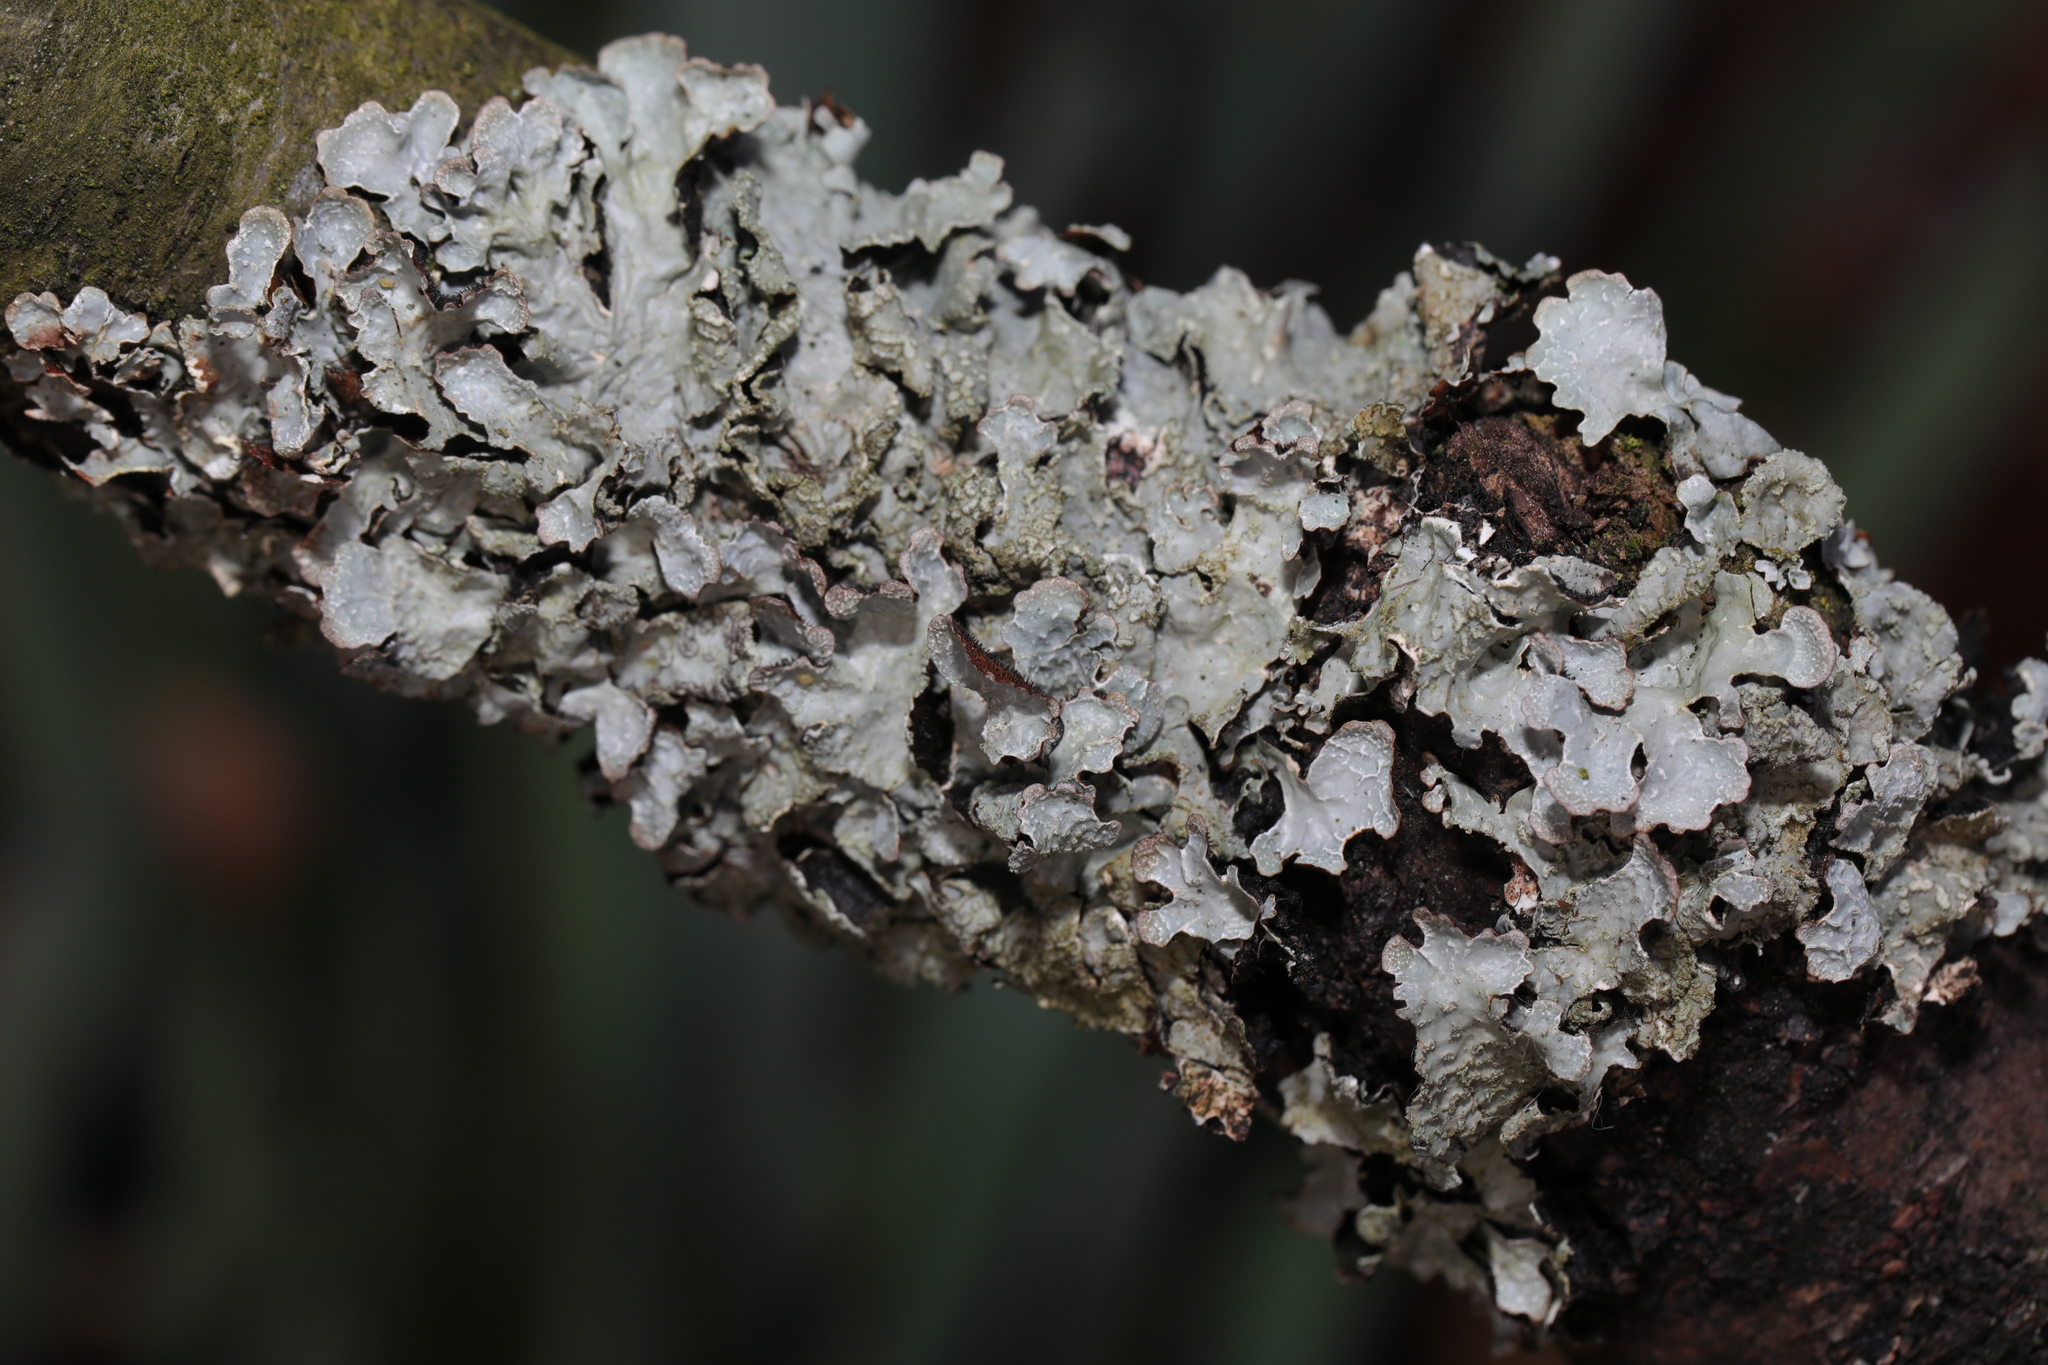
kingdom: Fungi
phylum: Ascomycota
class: Lecanoromycetes
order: Lecanorales
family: Parmeliaceae
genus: Parmelia
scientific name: Parmelia sulcata
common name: Netted shield lichen
